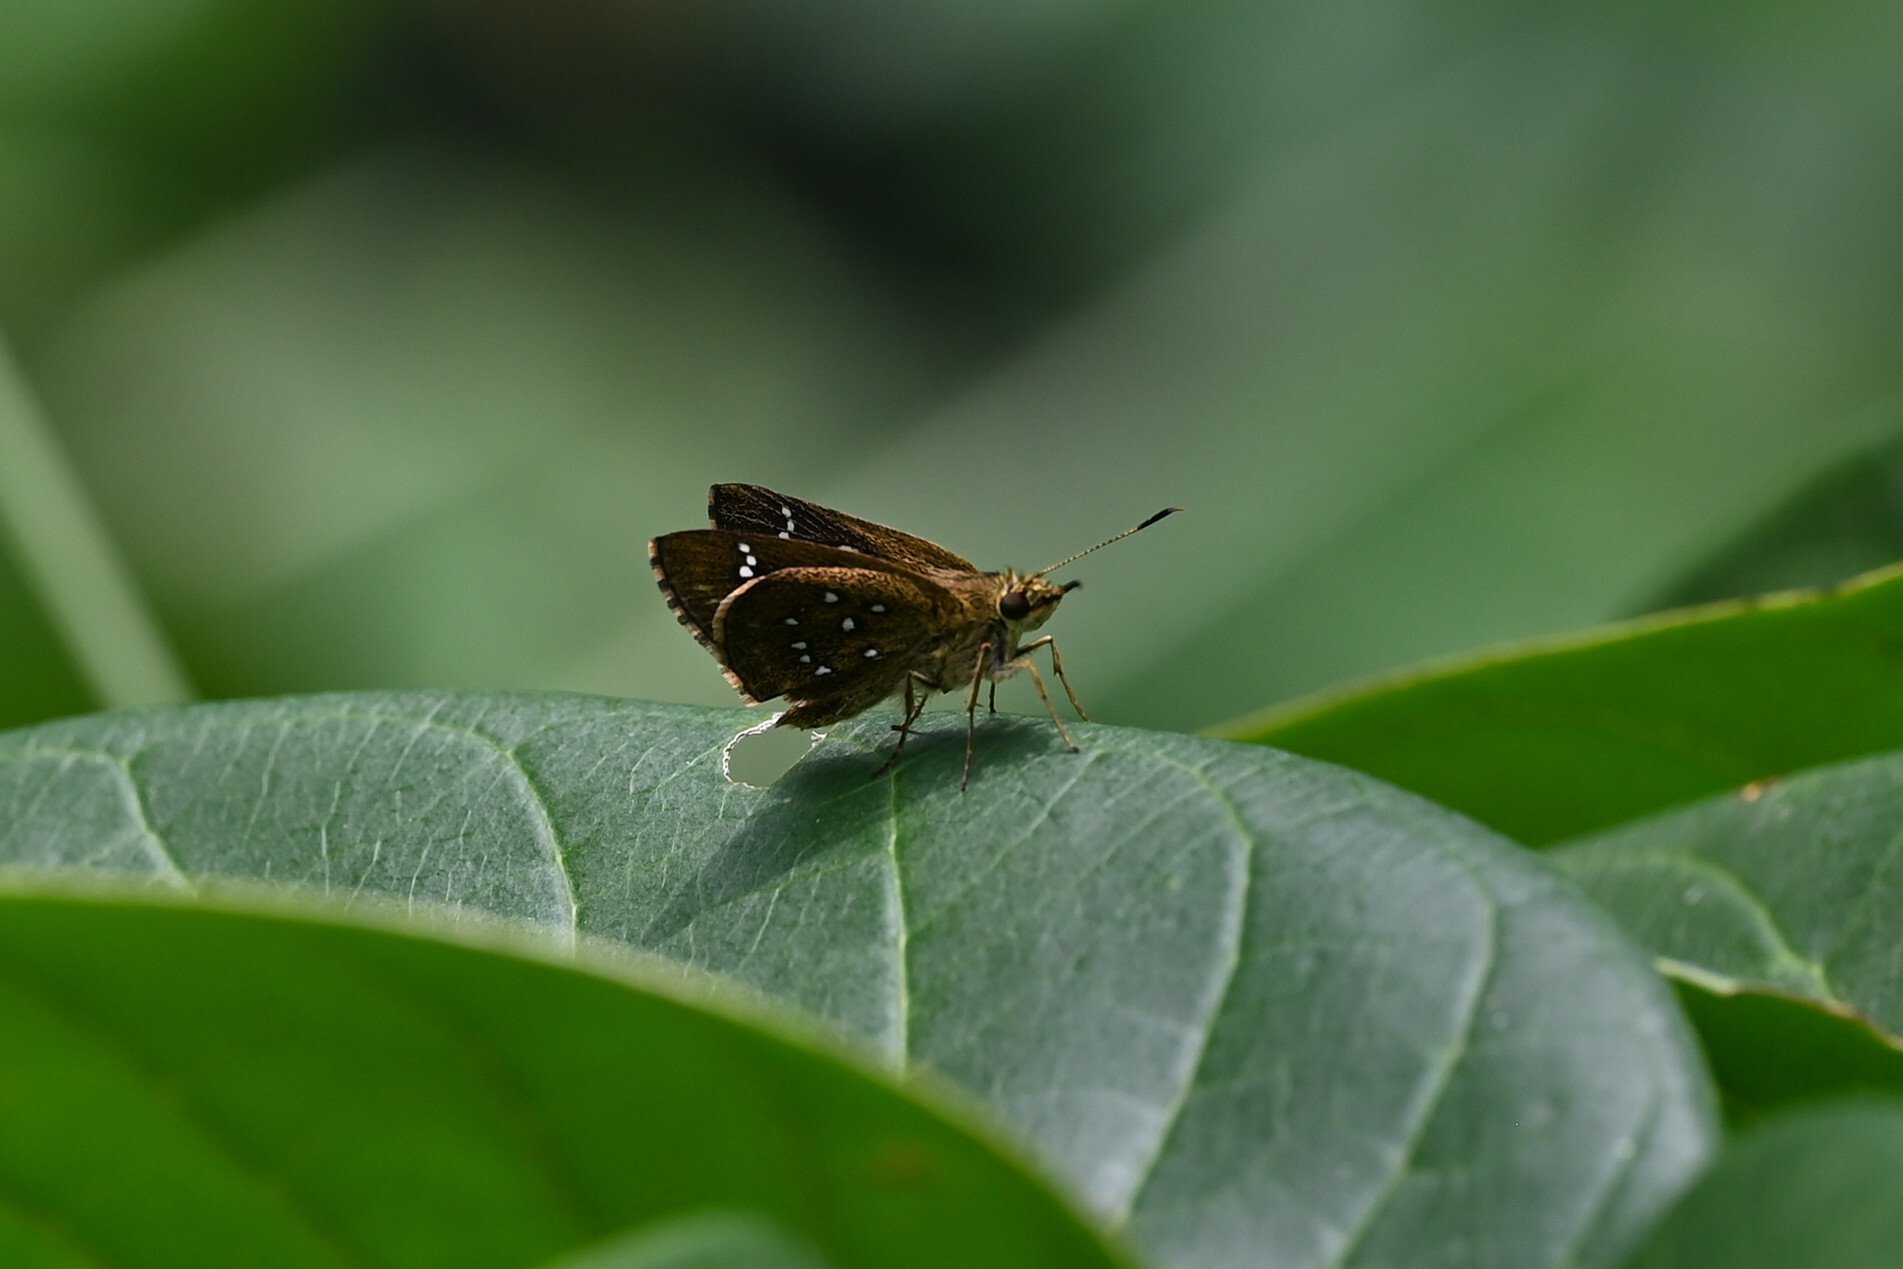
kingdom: Animalia
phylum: Arthropoda
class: Insecta
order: Lepidoptera
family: Hesperiidae
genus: Arnetta
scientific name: Arnetta atkinsoni
